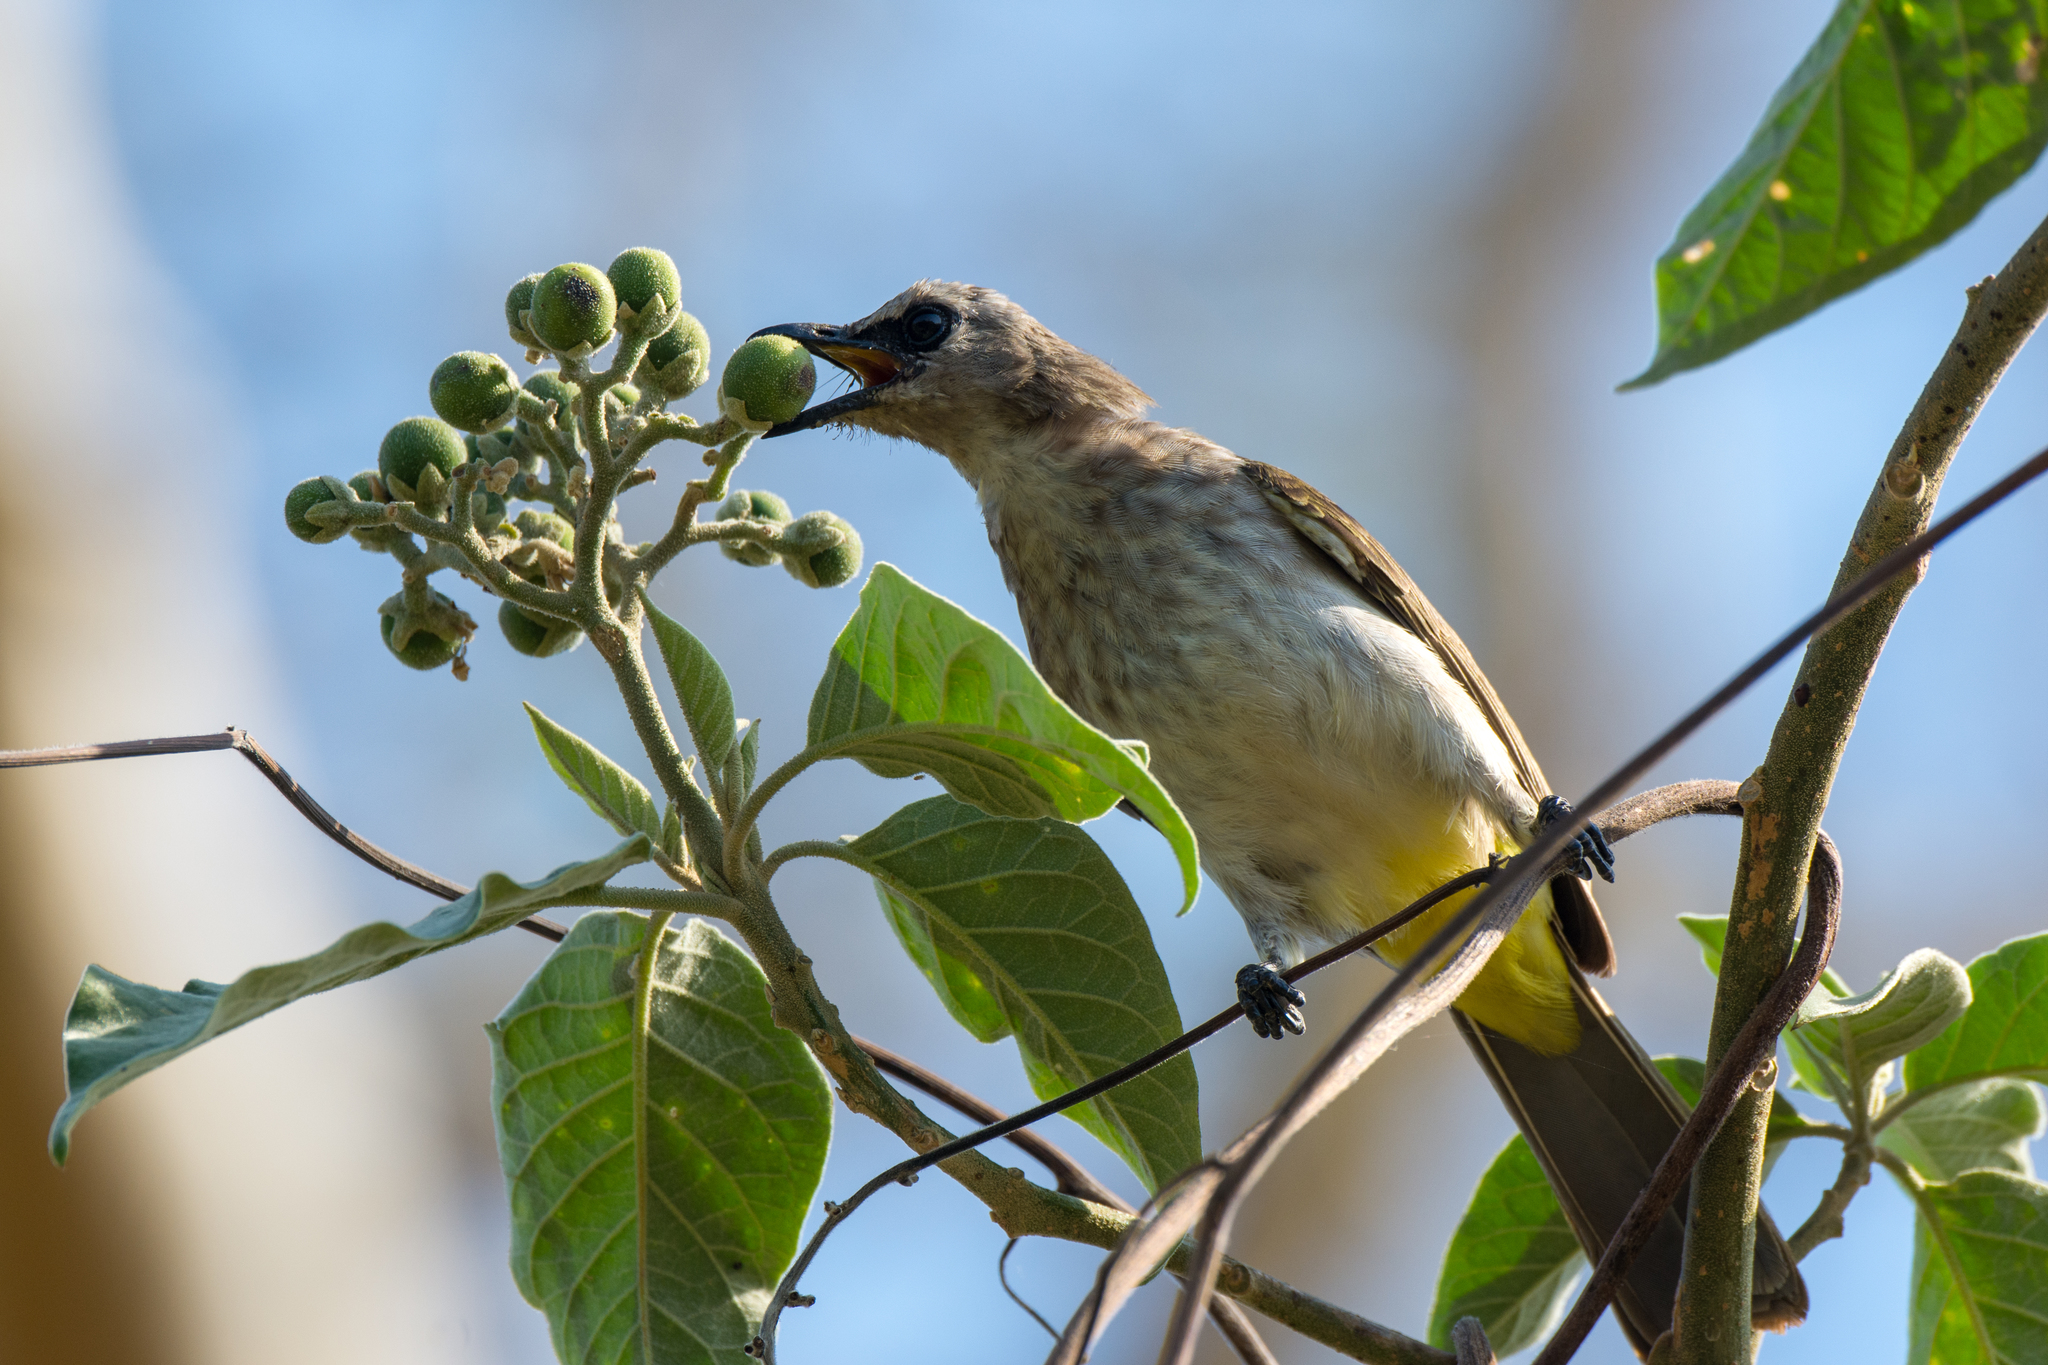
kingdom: Animalia
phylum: Chordata
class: Aves
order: Passeriformes
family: Pycnonotidae
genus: Pycnonotus
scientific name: Pycnonotus goiavier
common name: Yellow-vented bulbul
